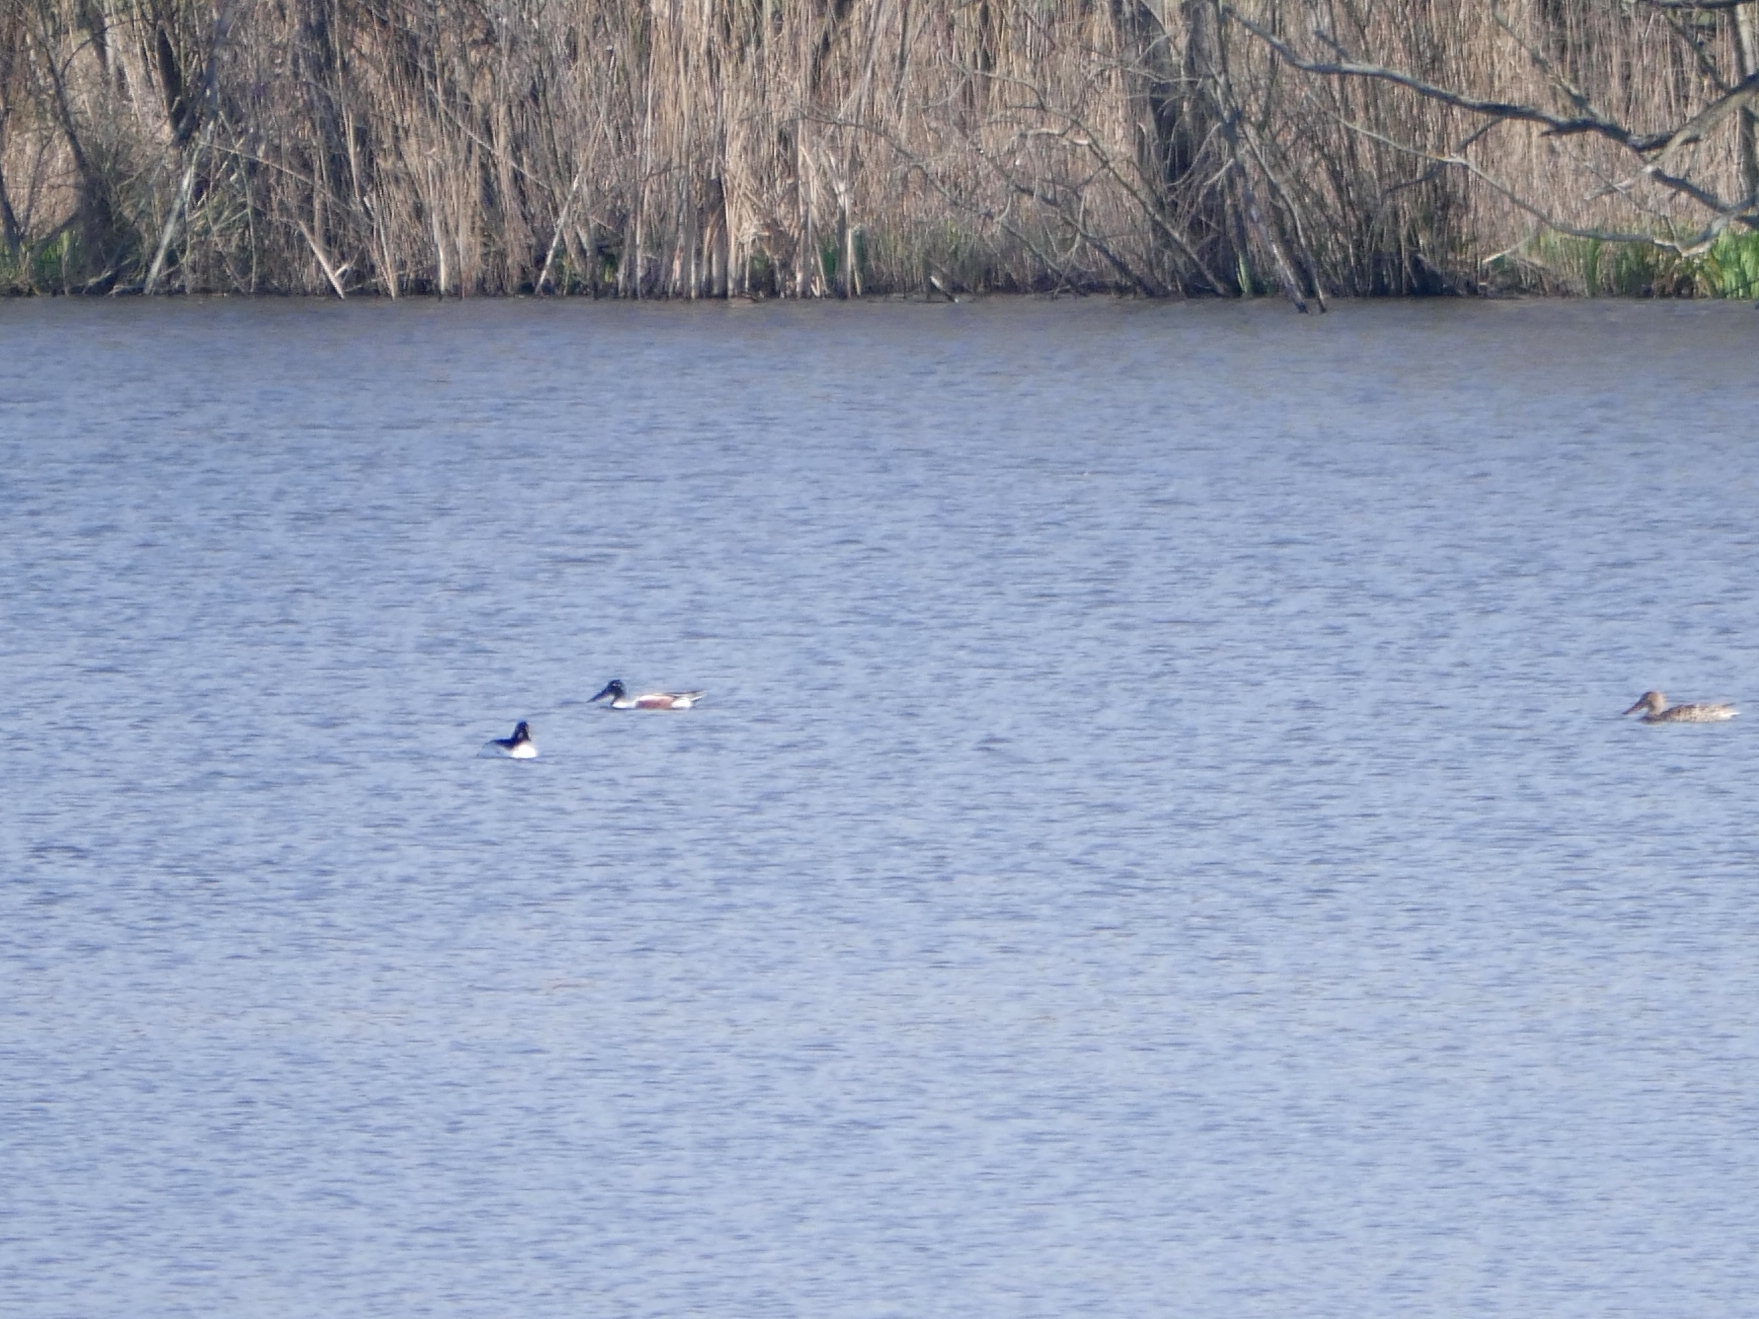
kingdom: Animalia
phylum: Chordata
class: Aves
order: Anseriformes
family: Anatidae
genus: Spatula
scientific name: Spatula clypeata
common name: Northern shoveler
